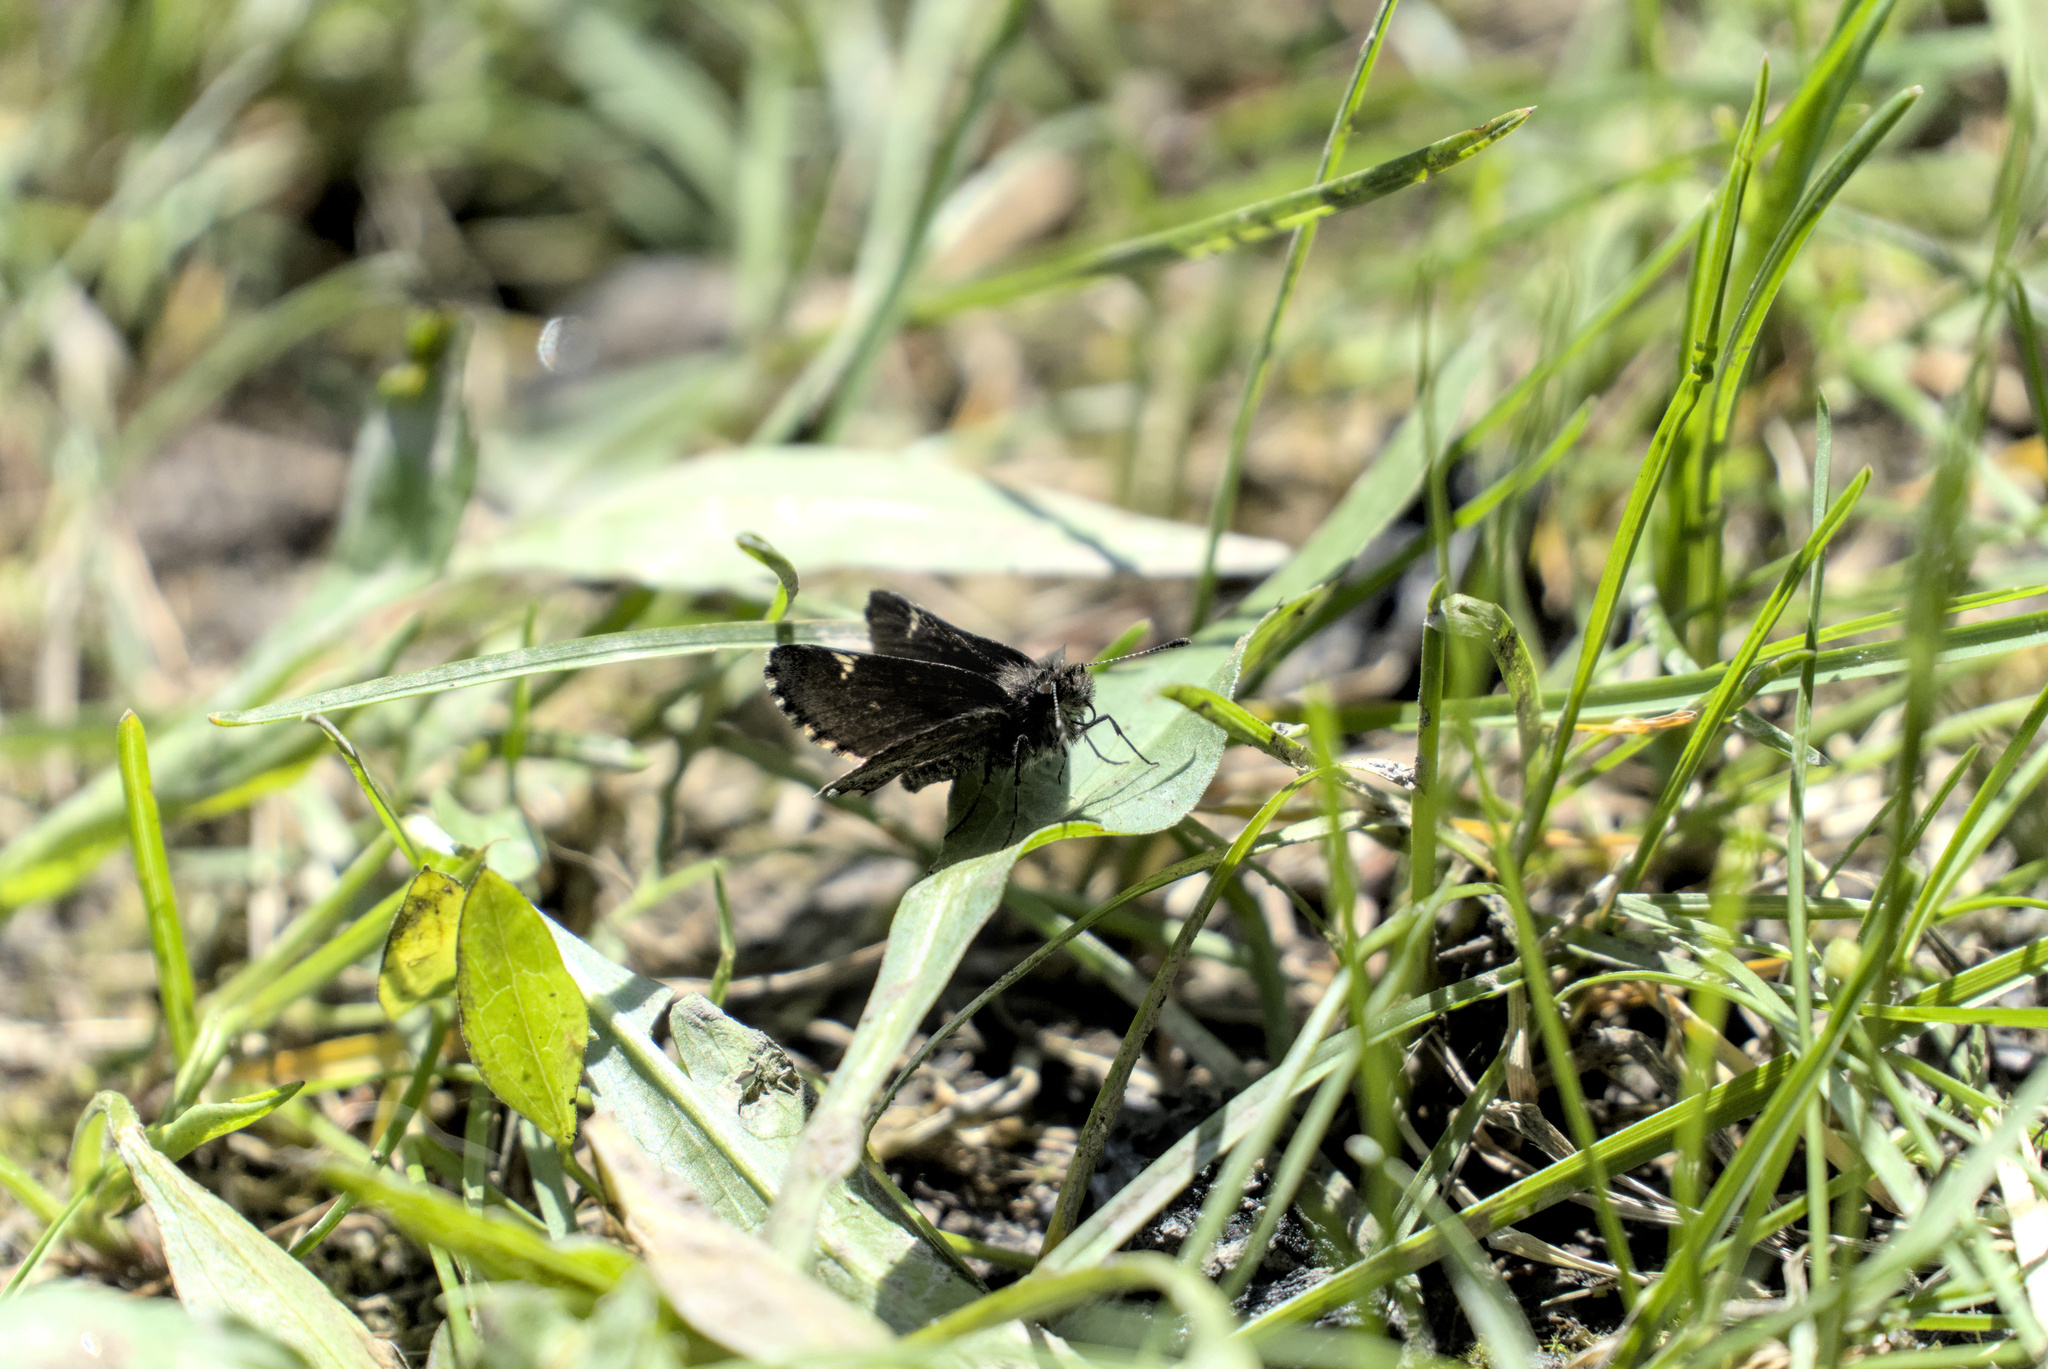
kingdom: Animalia
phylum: Arthropoda
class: Insecta
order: Lepidoptera
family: Hesperiidae
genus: Mastor
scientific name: Mastor vialis
